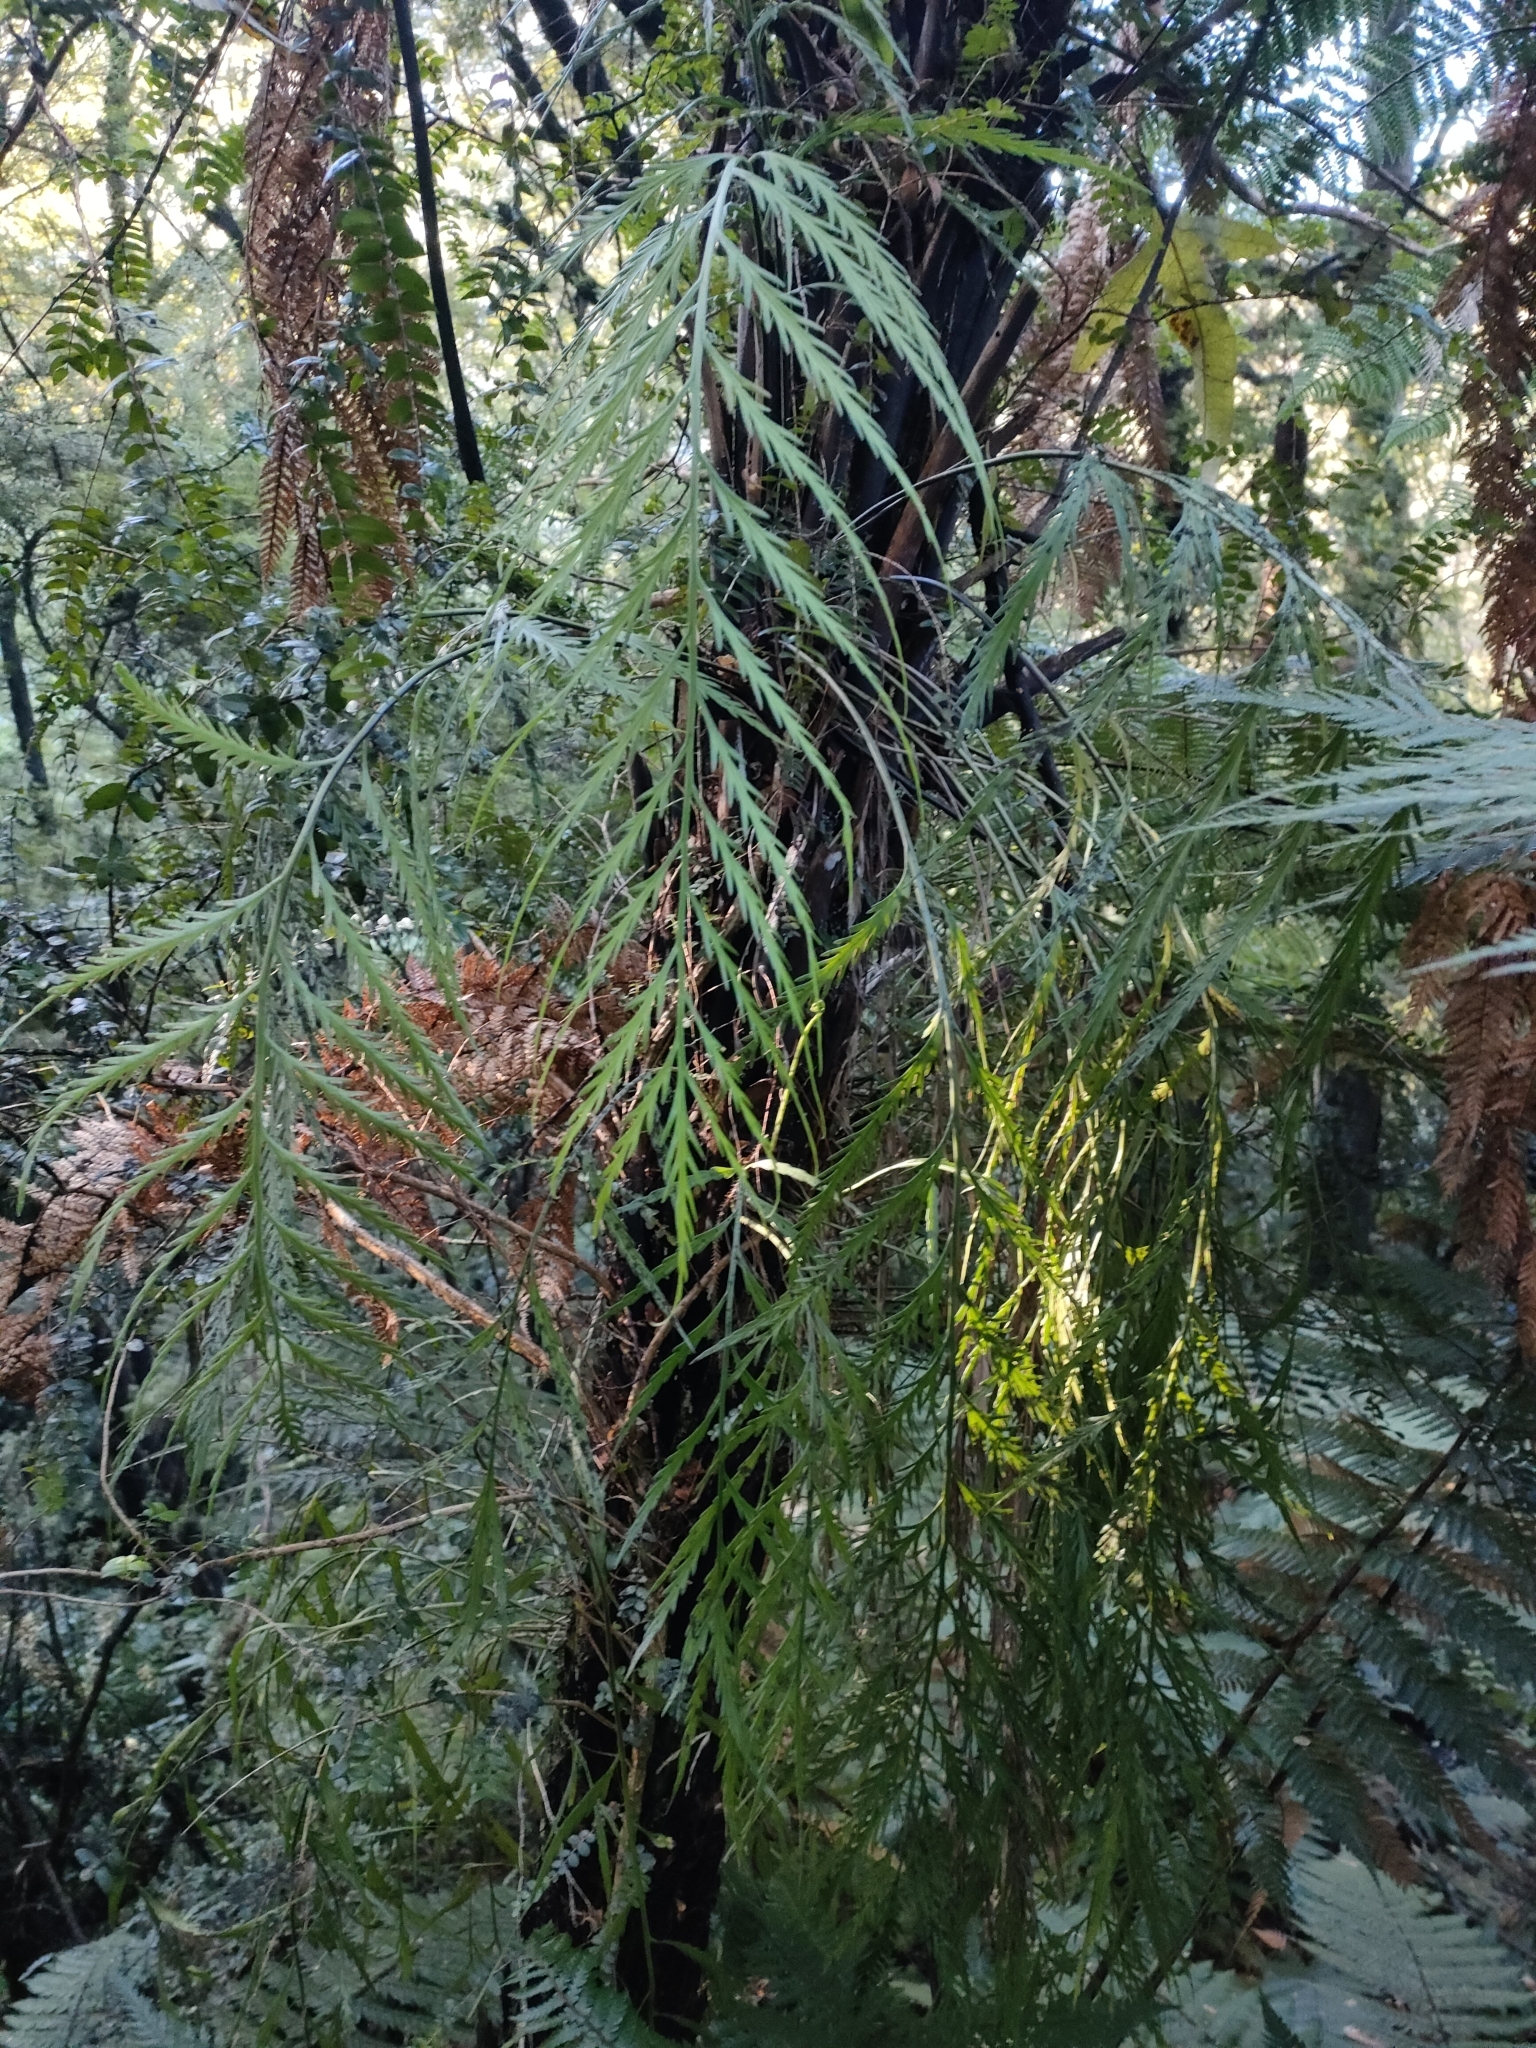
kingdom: Plantae
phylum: Tracheophyta
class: Polypodiopsida
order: Polypodiales
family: Aspleniaceae
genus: Asplenium
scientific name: Asplenium flaccidum
